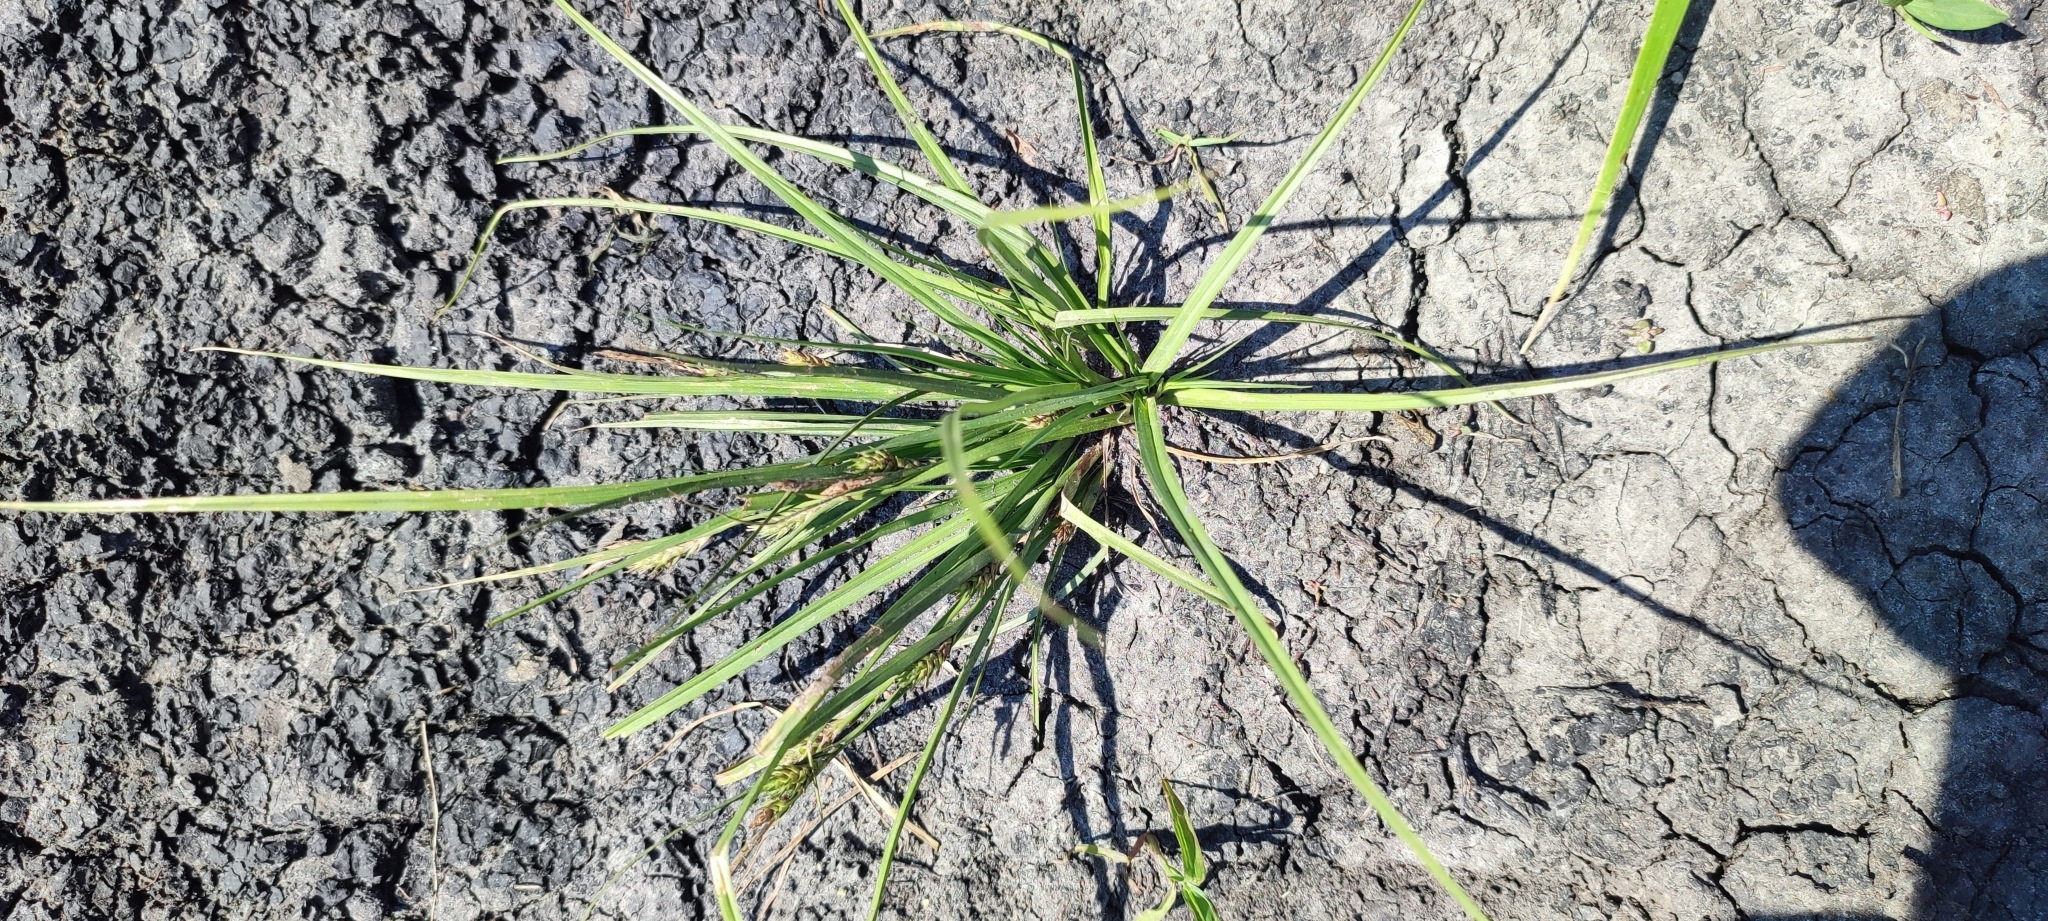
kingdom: Plantae
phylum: Tracheophyta
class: Liliopsida
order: Poales
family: Cyperaceae
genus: Carex
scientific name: Carex secalina
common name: Rye sedge
